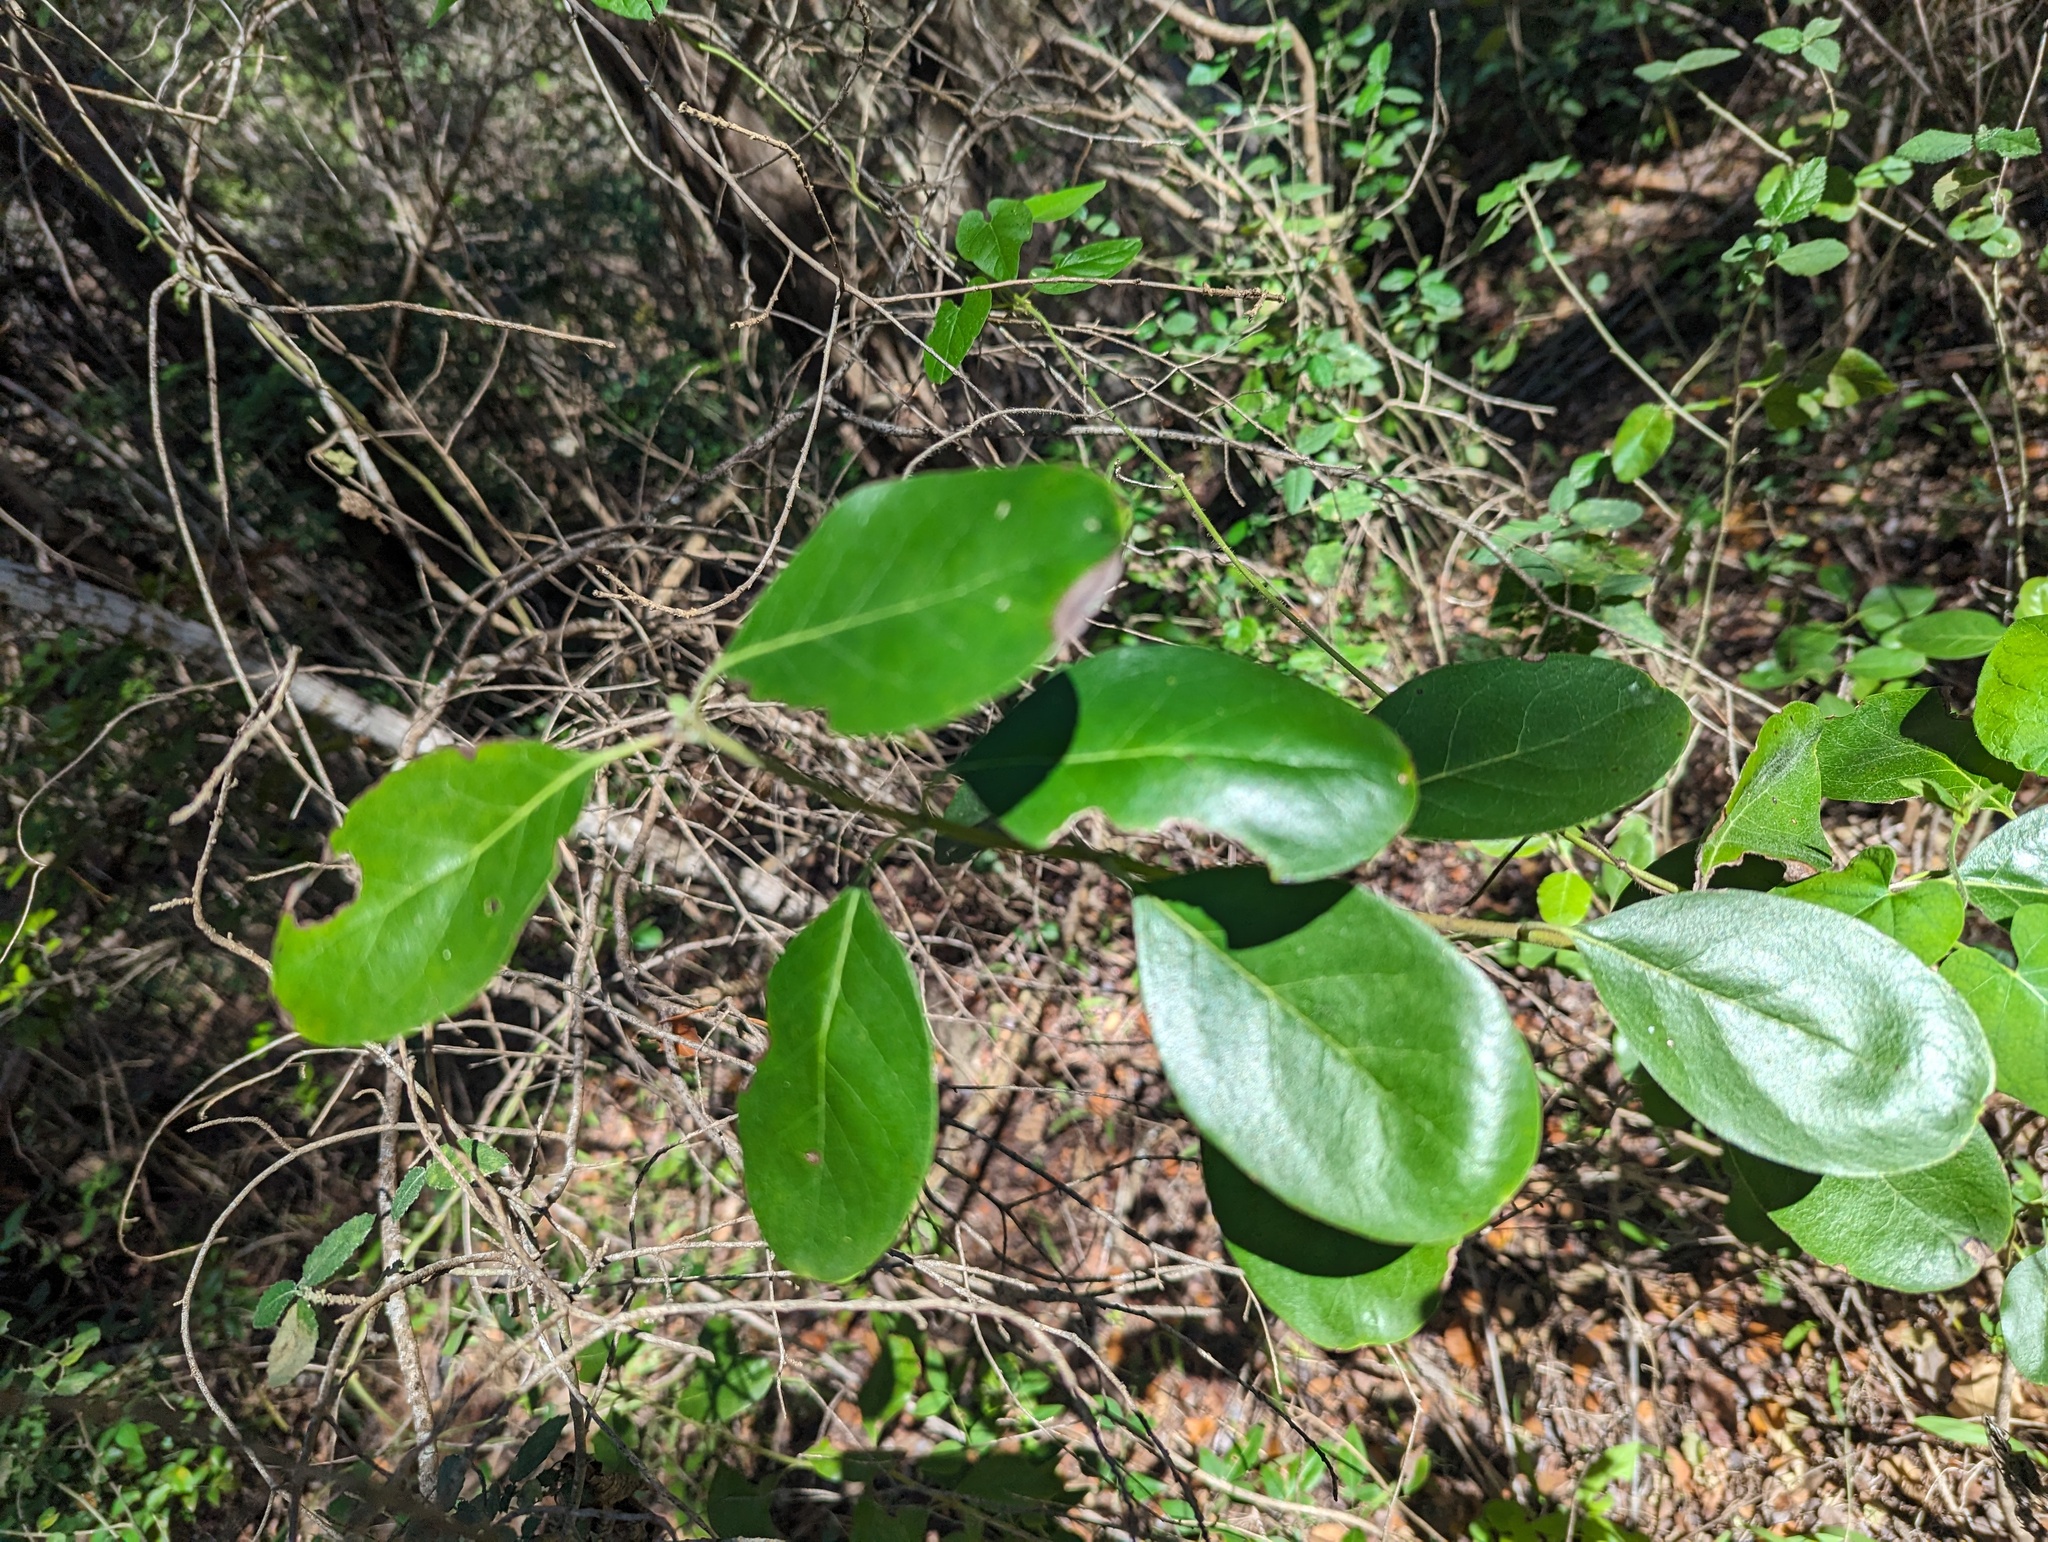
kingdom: Plantae
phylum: Tracheophyta
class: Magnoliopsida
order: Garryales
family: Garryaceae
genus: Garrya
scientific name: Garrya lindheimeri
